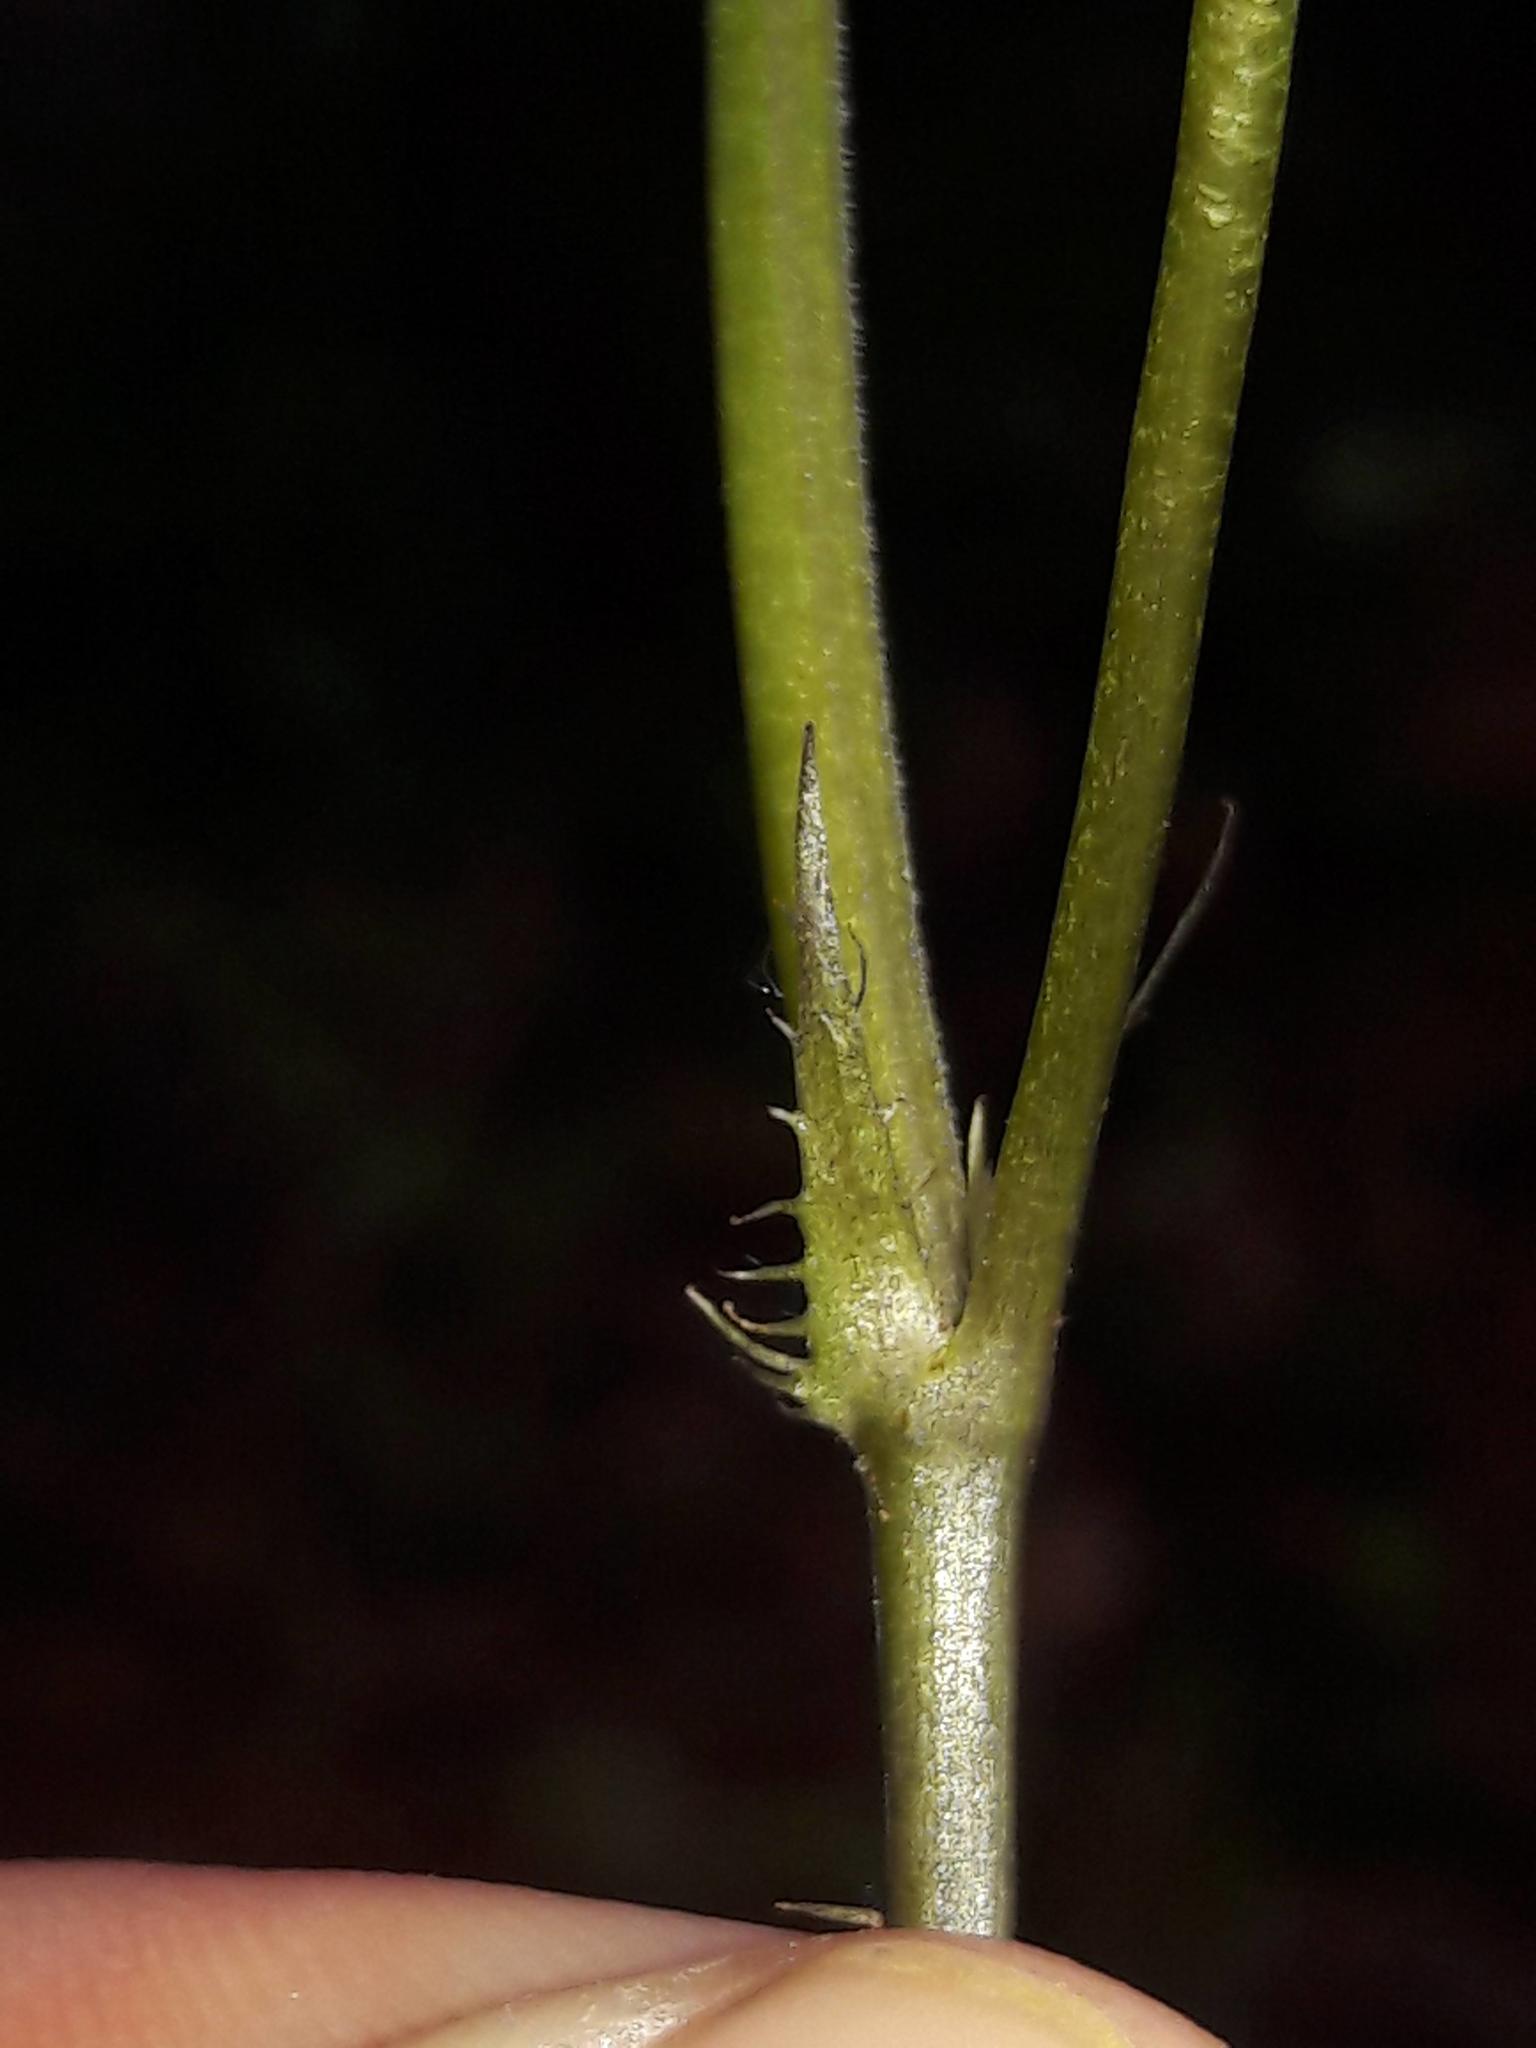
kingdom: Plantae
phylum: Tracheophyta
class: Magnoliopsida
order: Malpighiales
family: Violaceae
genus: Viola
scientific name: Viola riviniana
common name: Common dog-violet
